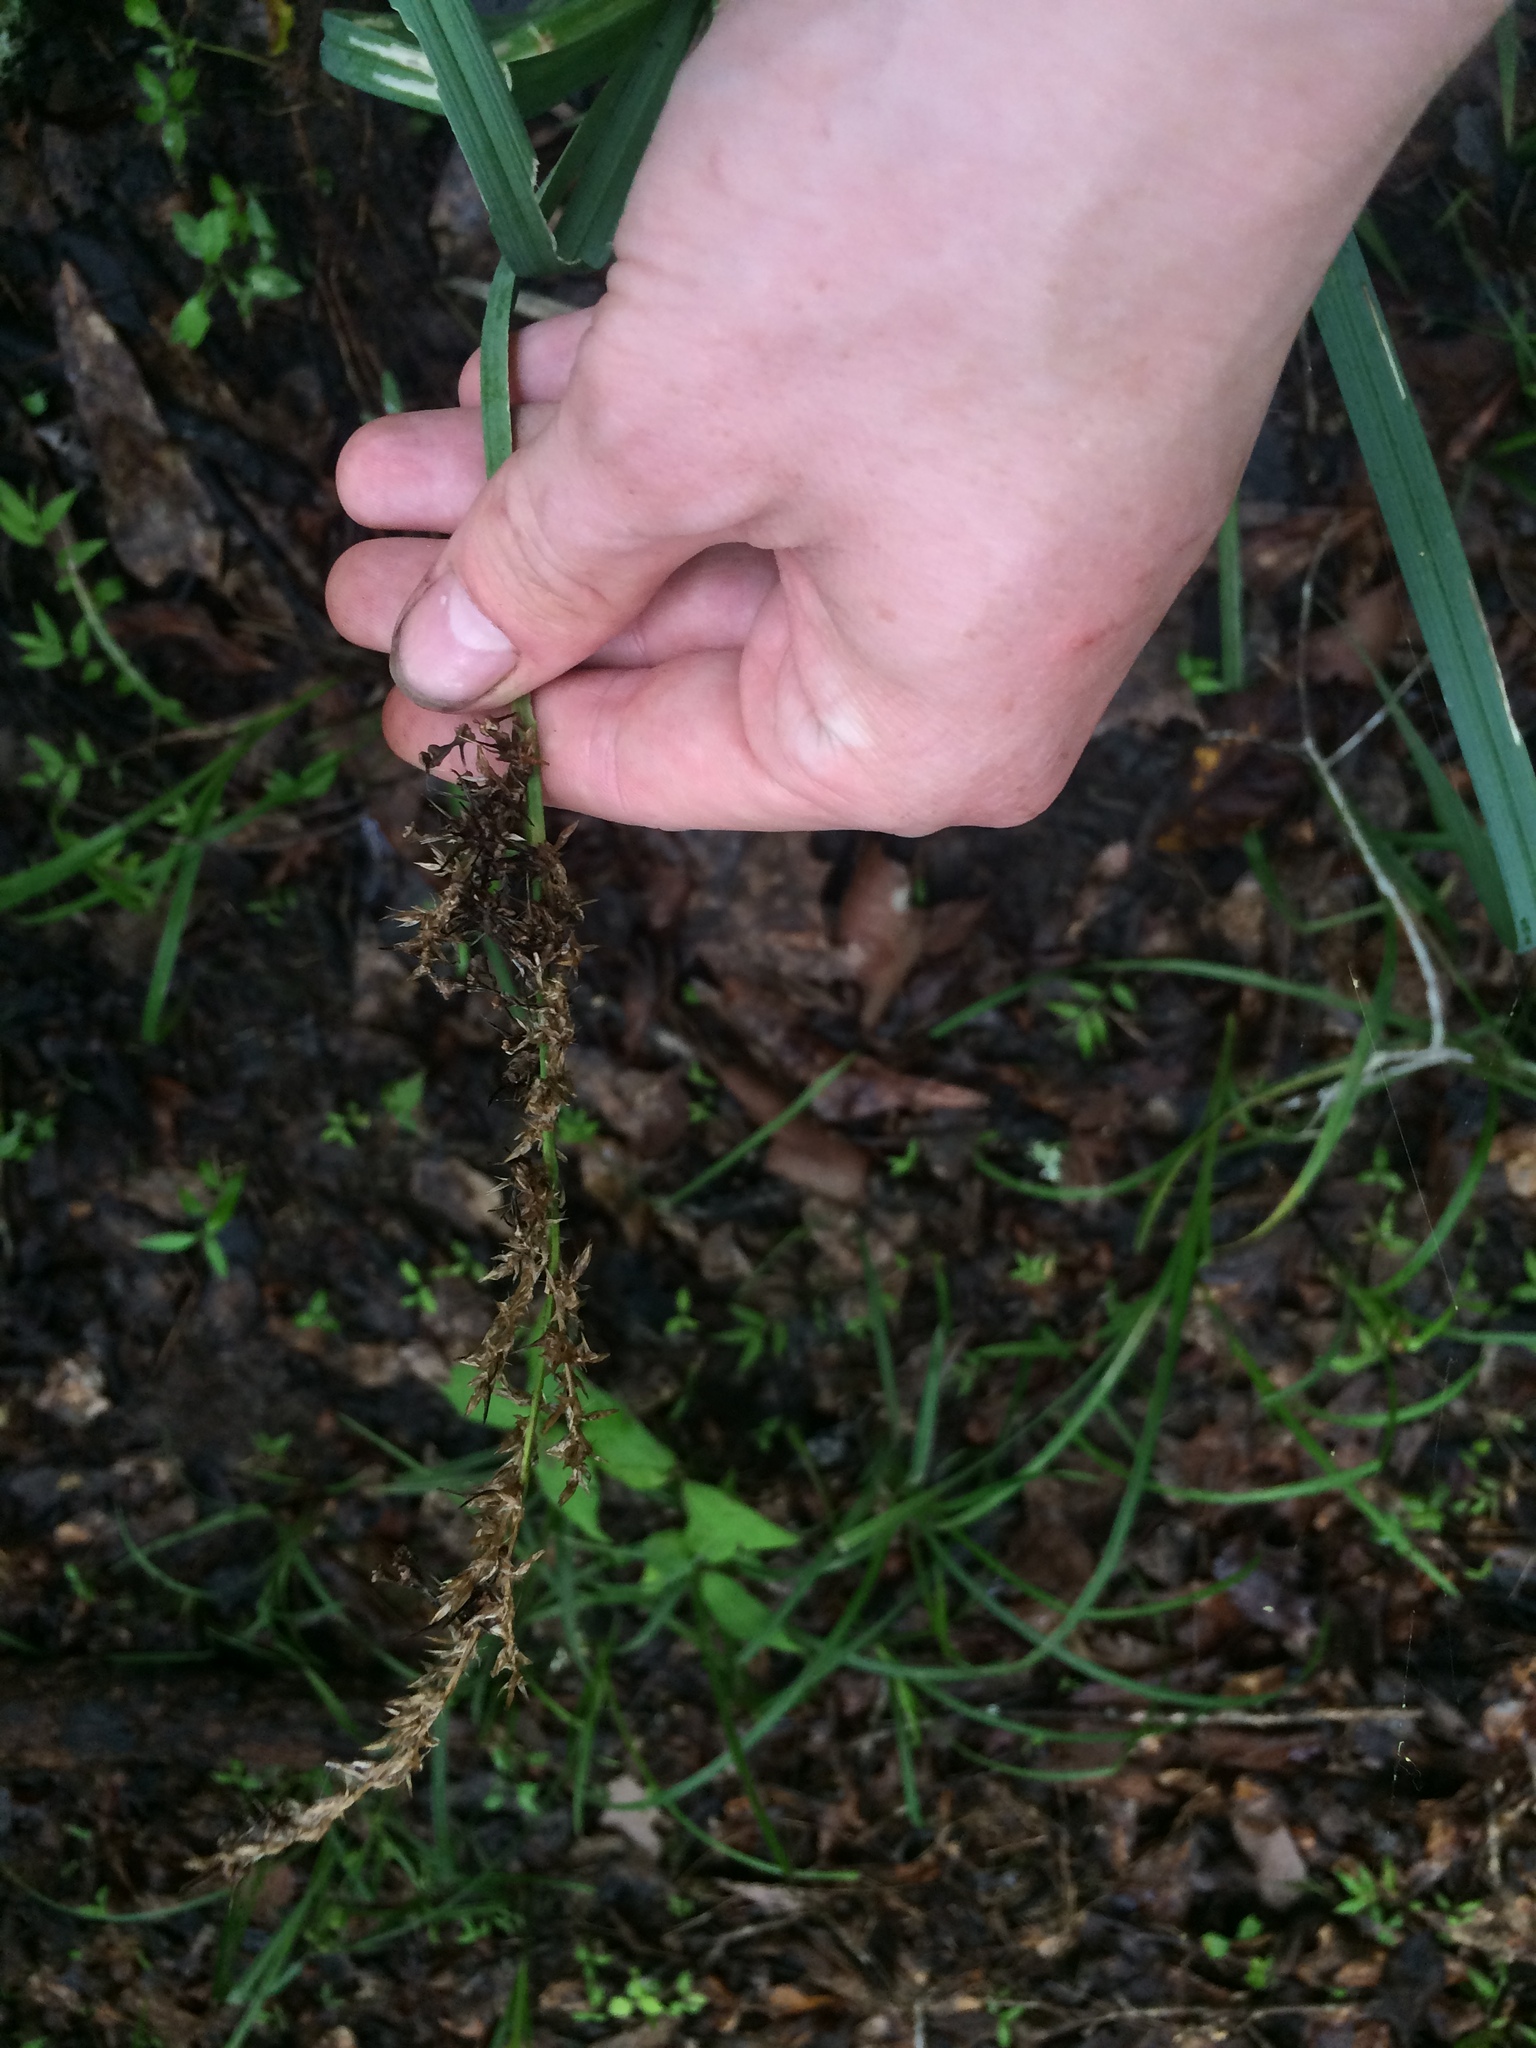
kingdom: Plantae
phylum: Tracheophyta
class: Liliopsida
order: Poales
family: Cyperaceae
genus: Carex
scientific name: Carex crus-corvi
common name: Crow-spur sedge
